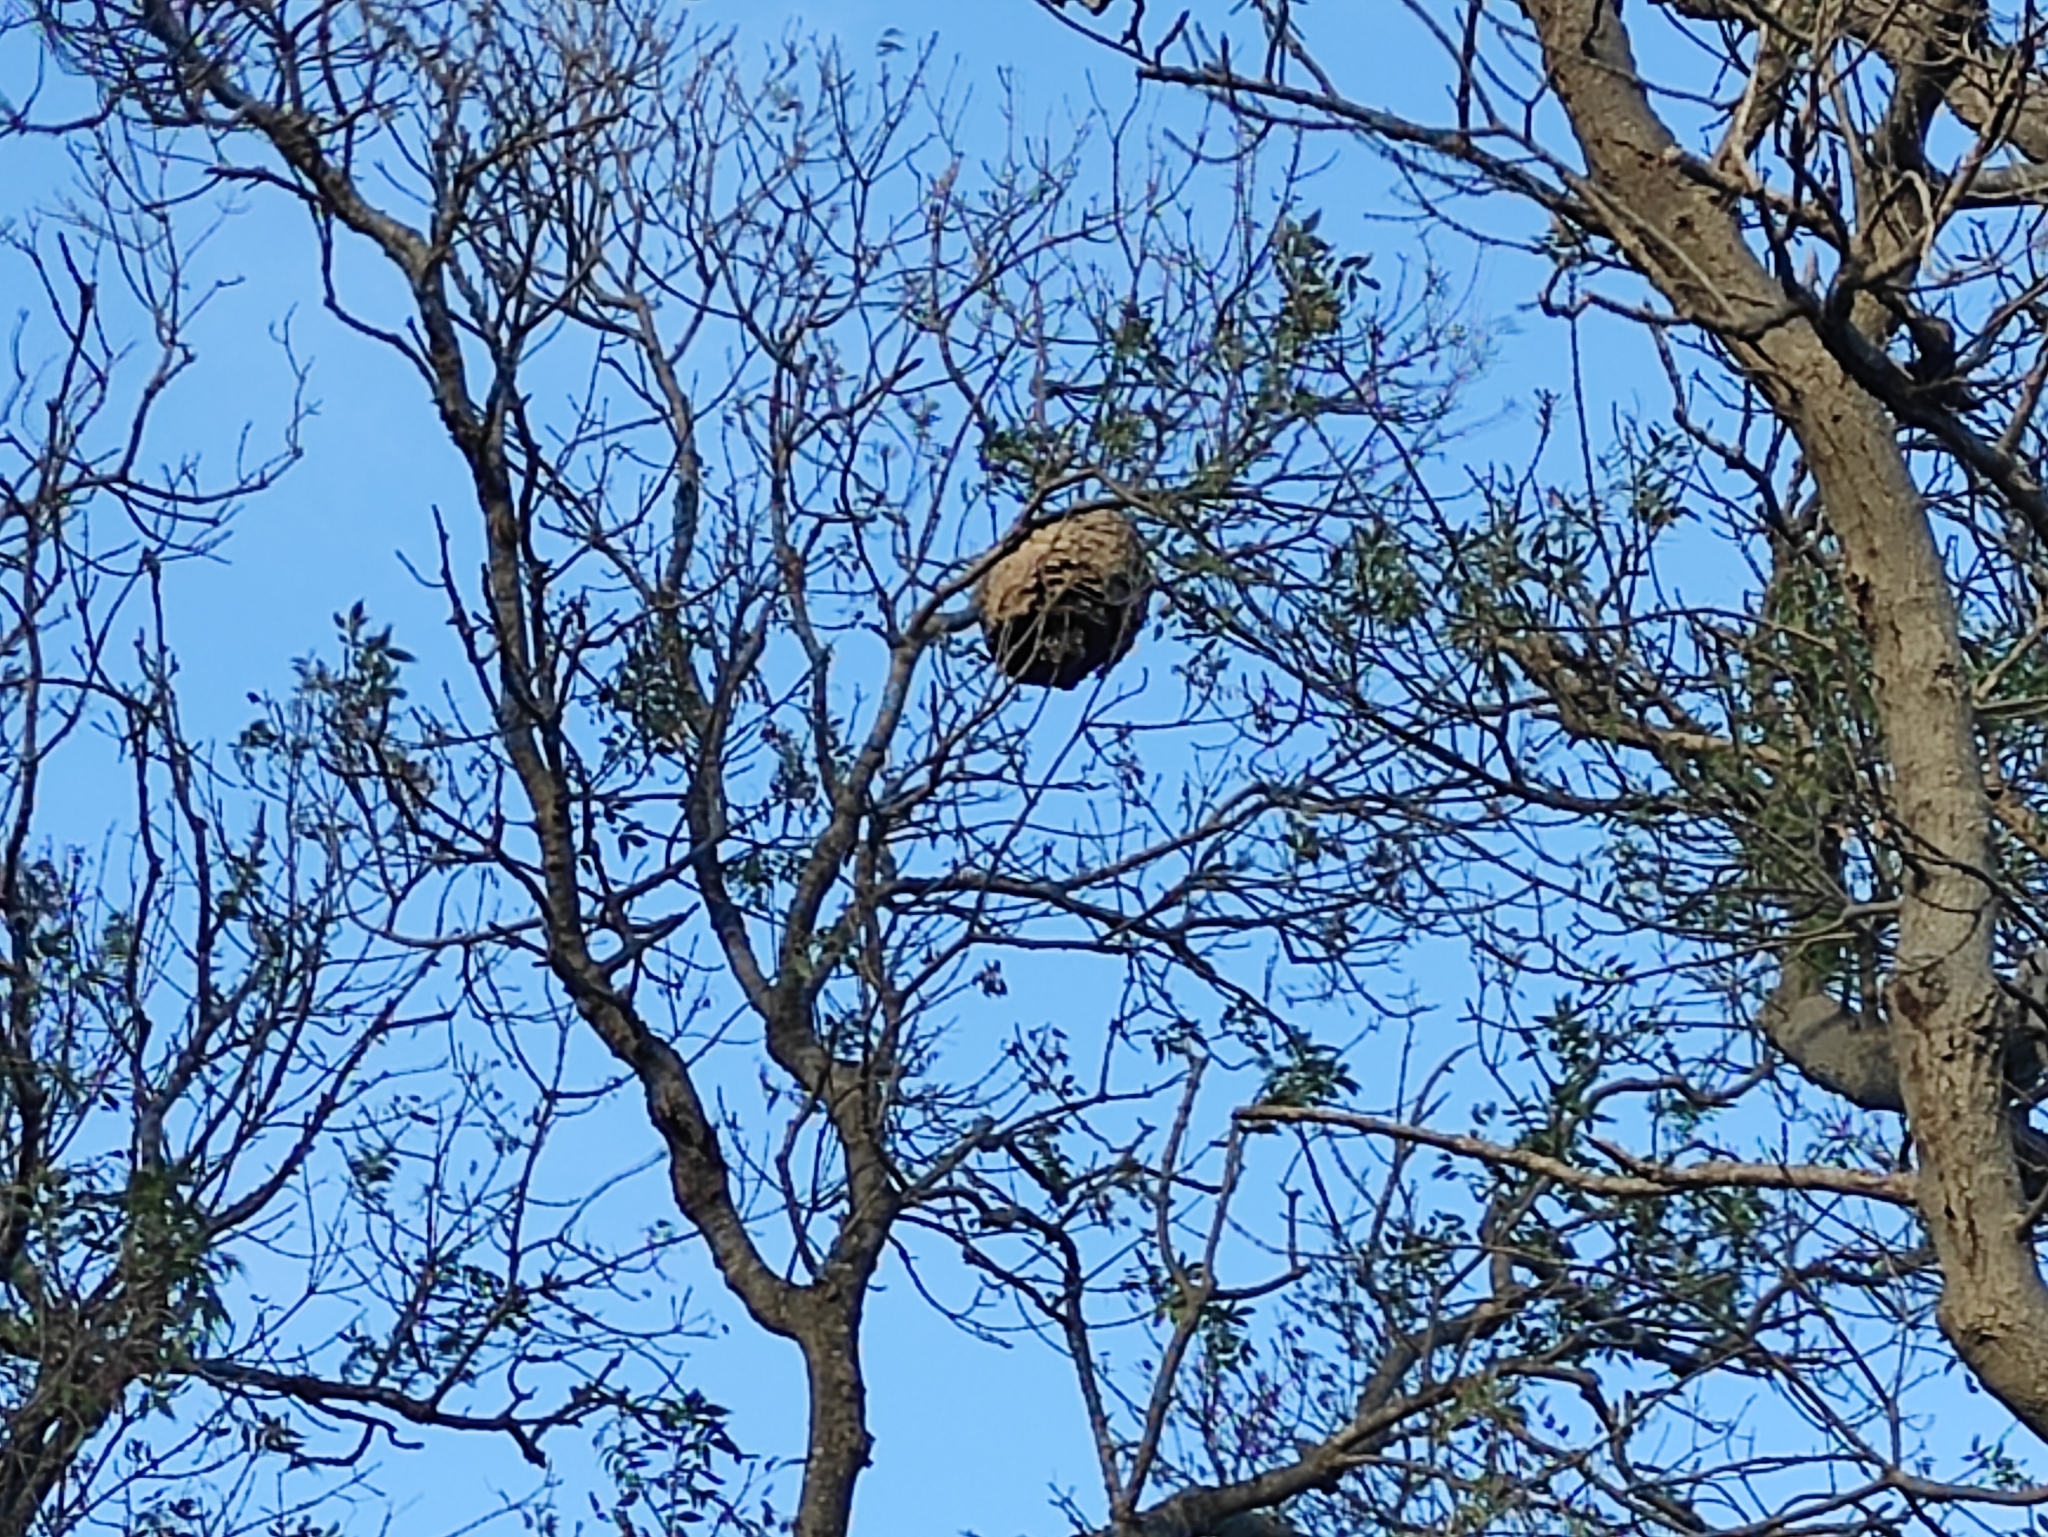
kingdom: Animalia
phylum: Arthropoda
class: Insecta
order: Hymenoptera
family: Vespidae
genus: Vespa
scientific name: Vespa velutina
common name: Asian hornet
